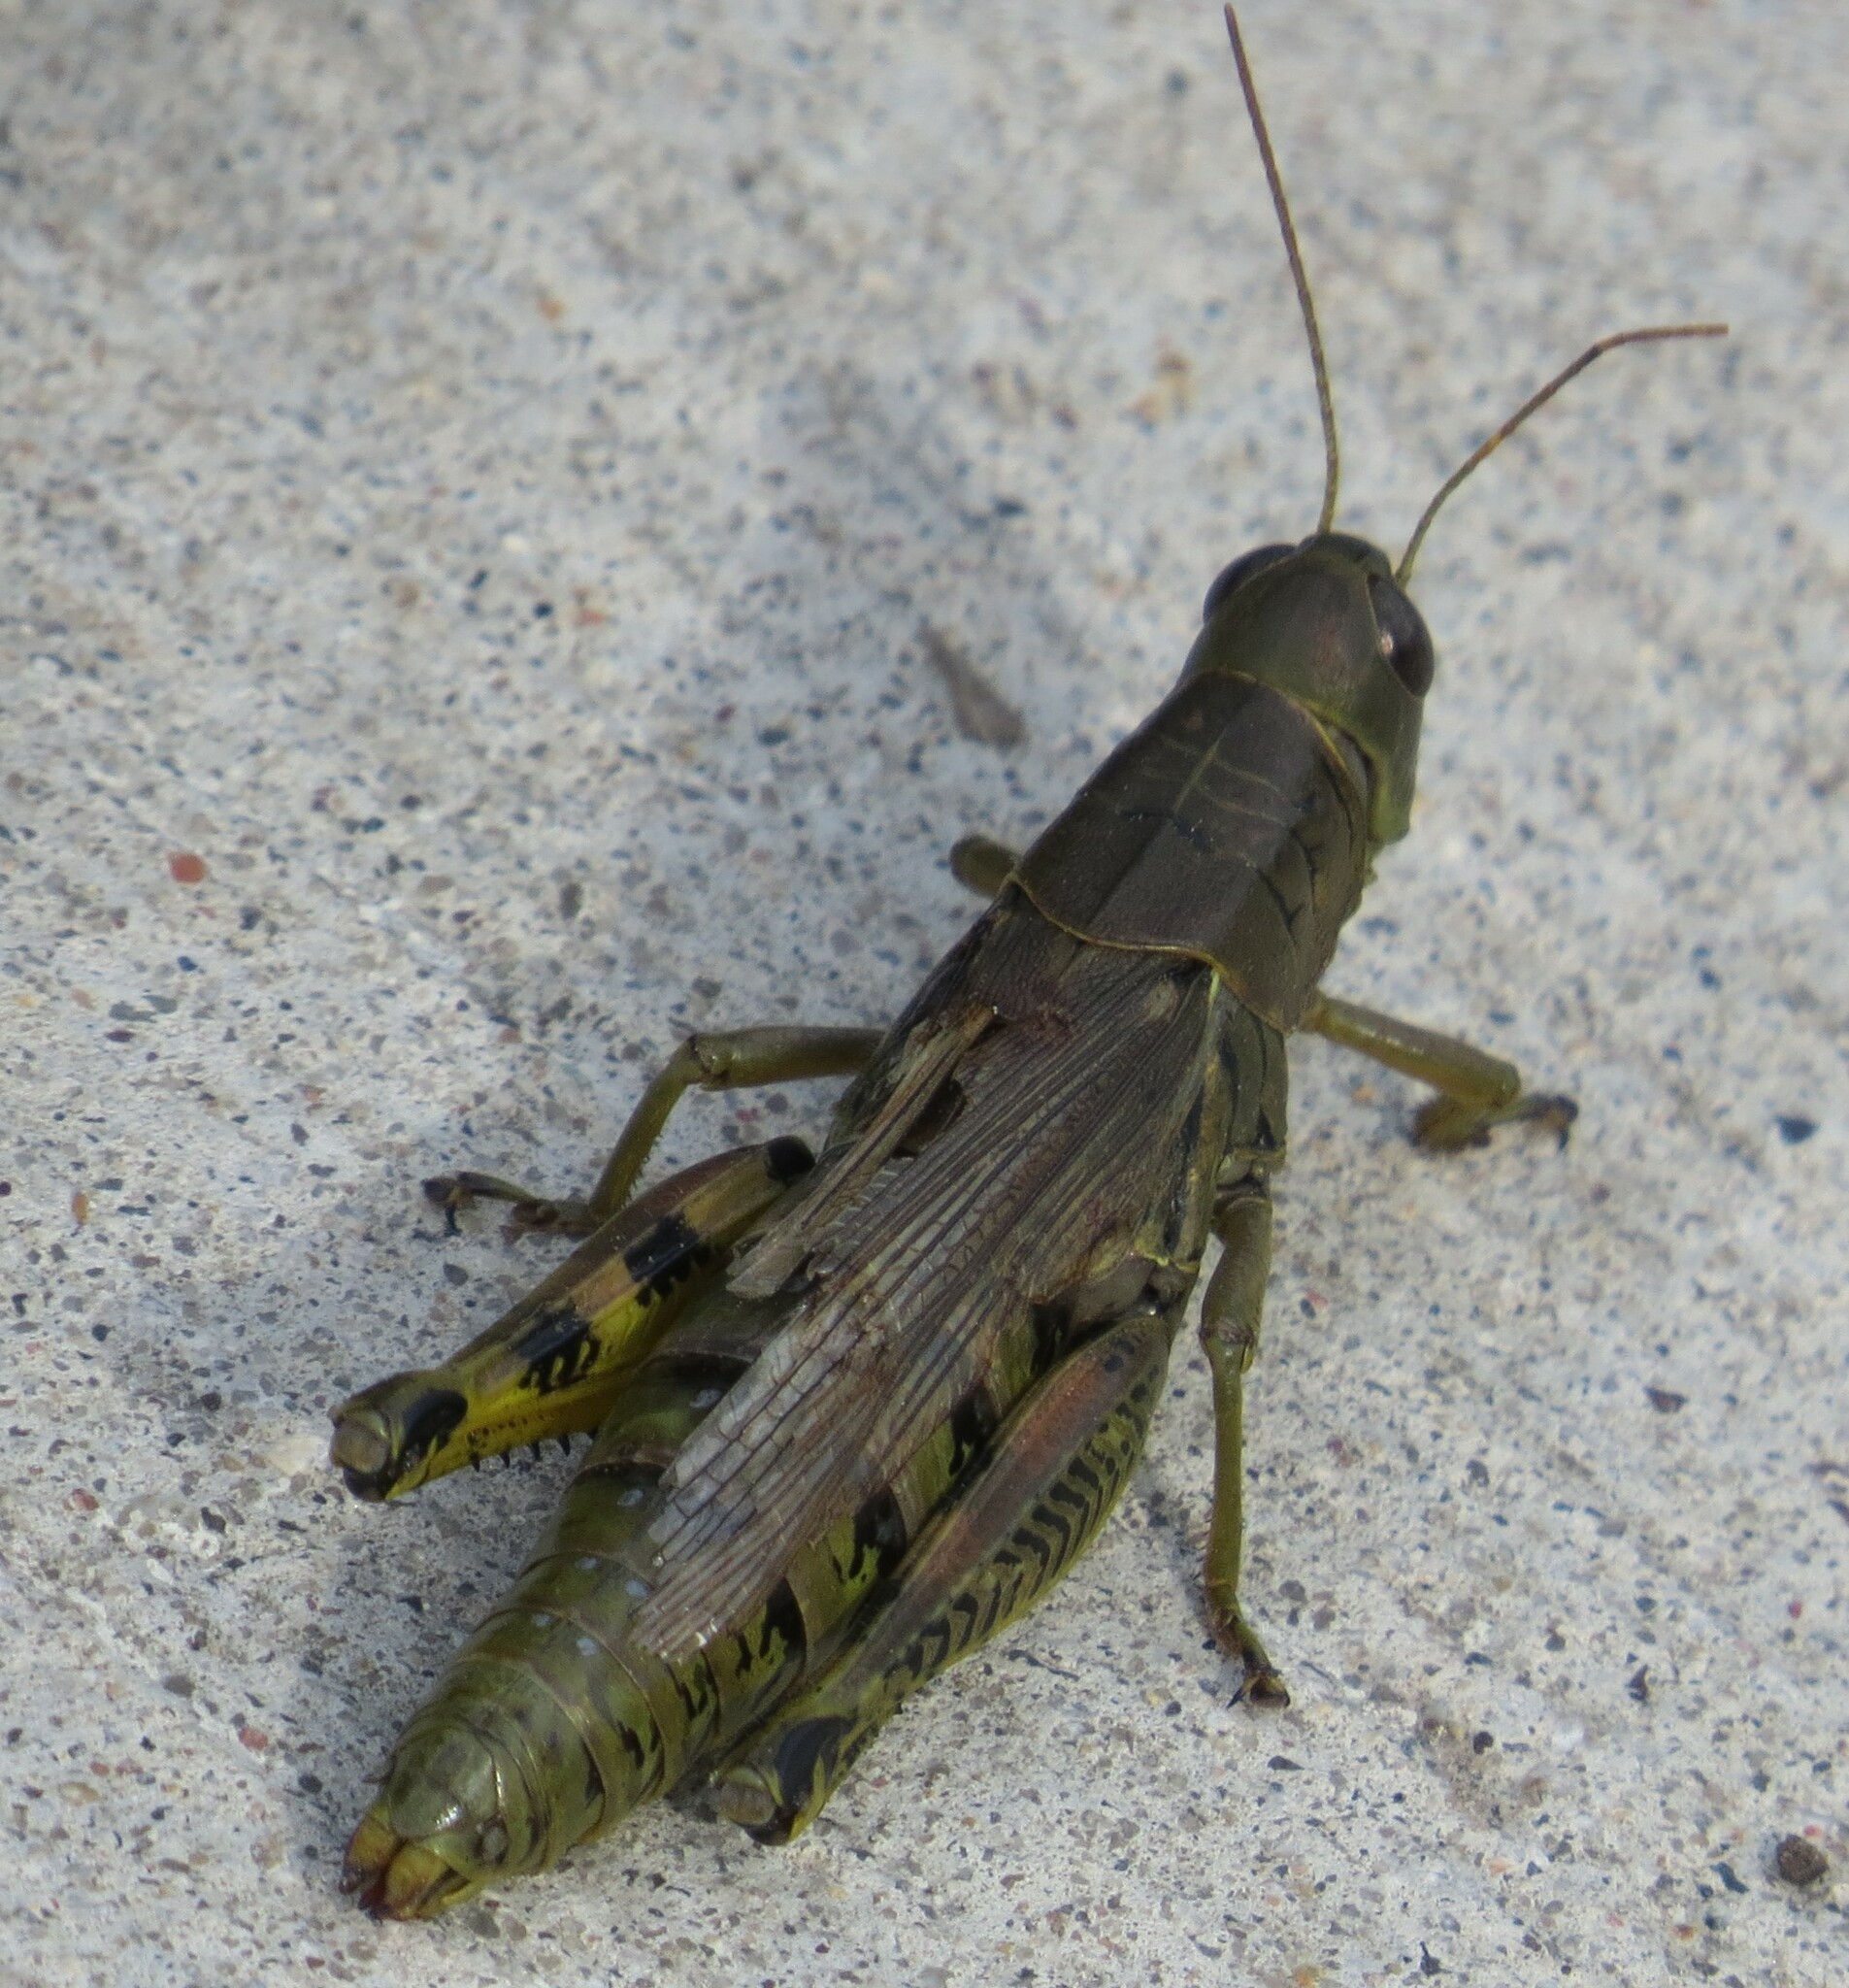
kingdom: Animalia
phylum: Arthropoda
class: Insecta
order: Orthoptera
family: Acrididae
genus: Melanoplus
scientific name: Melanoplus differentialis
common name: Differential grasshopper
